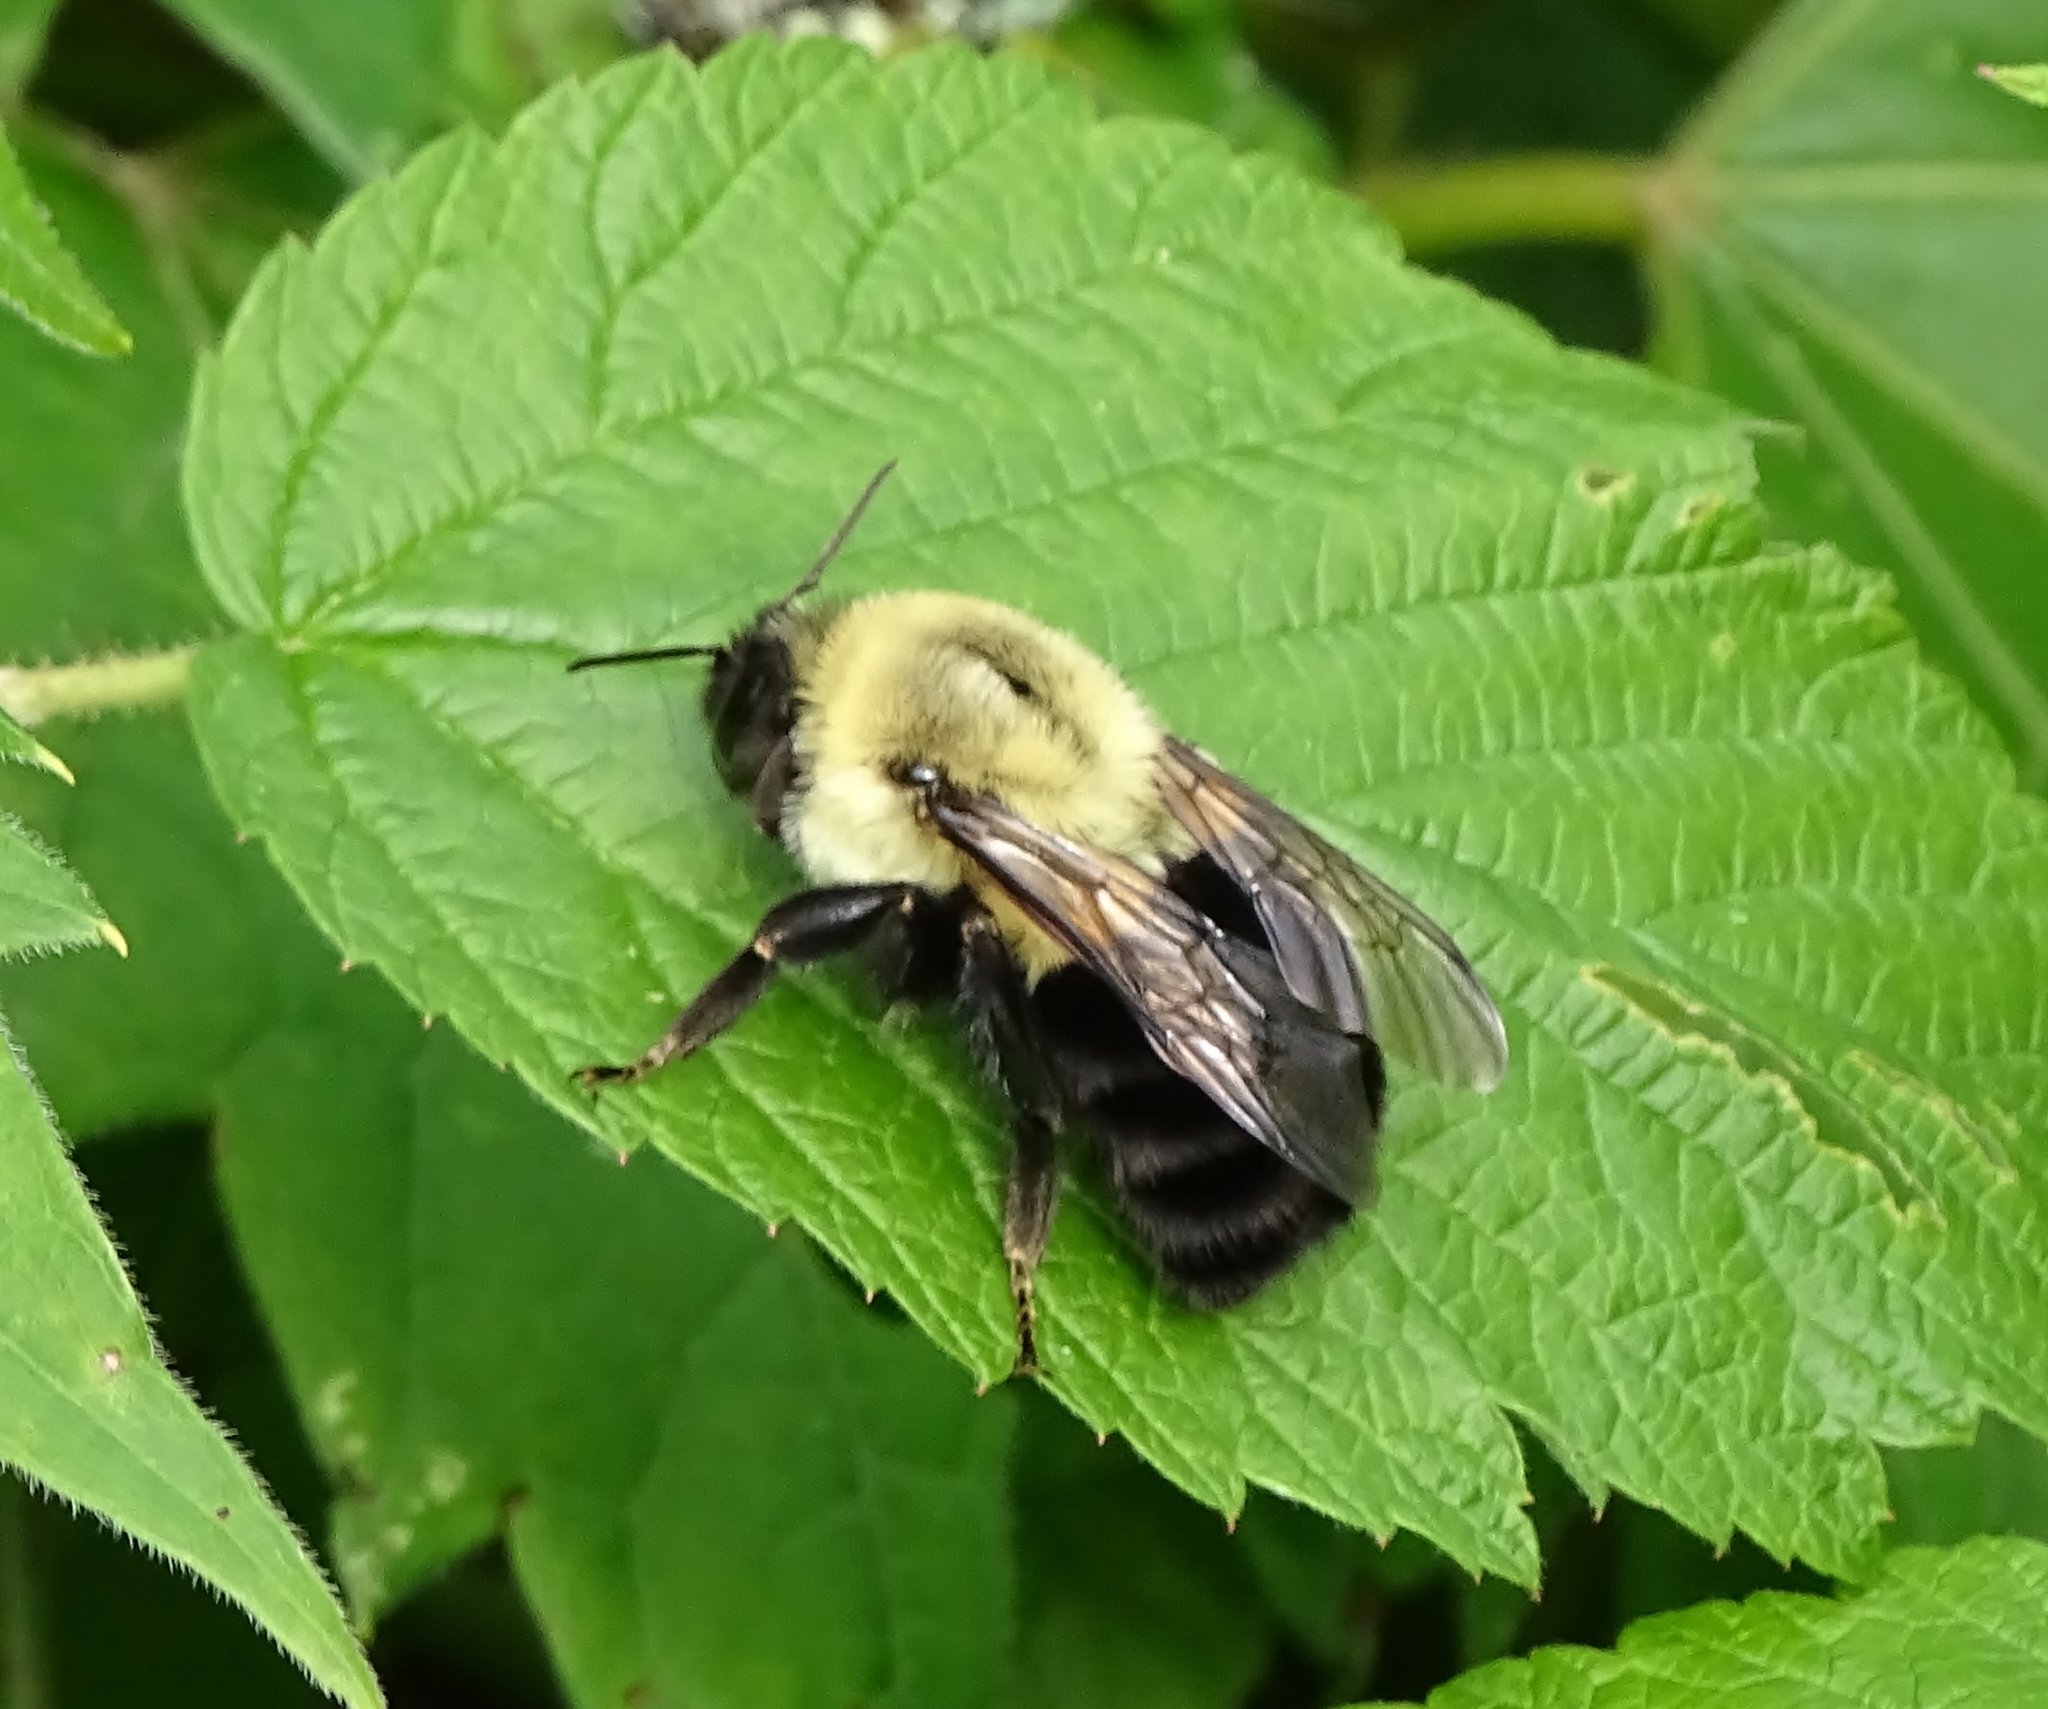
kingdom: Animalia
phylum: Arthropoda
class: Insecta
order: Hymenoptera
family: Apidae
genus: Bombus
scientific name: Bombus impatiens
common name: Common eastern bumble bee
